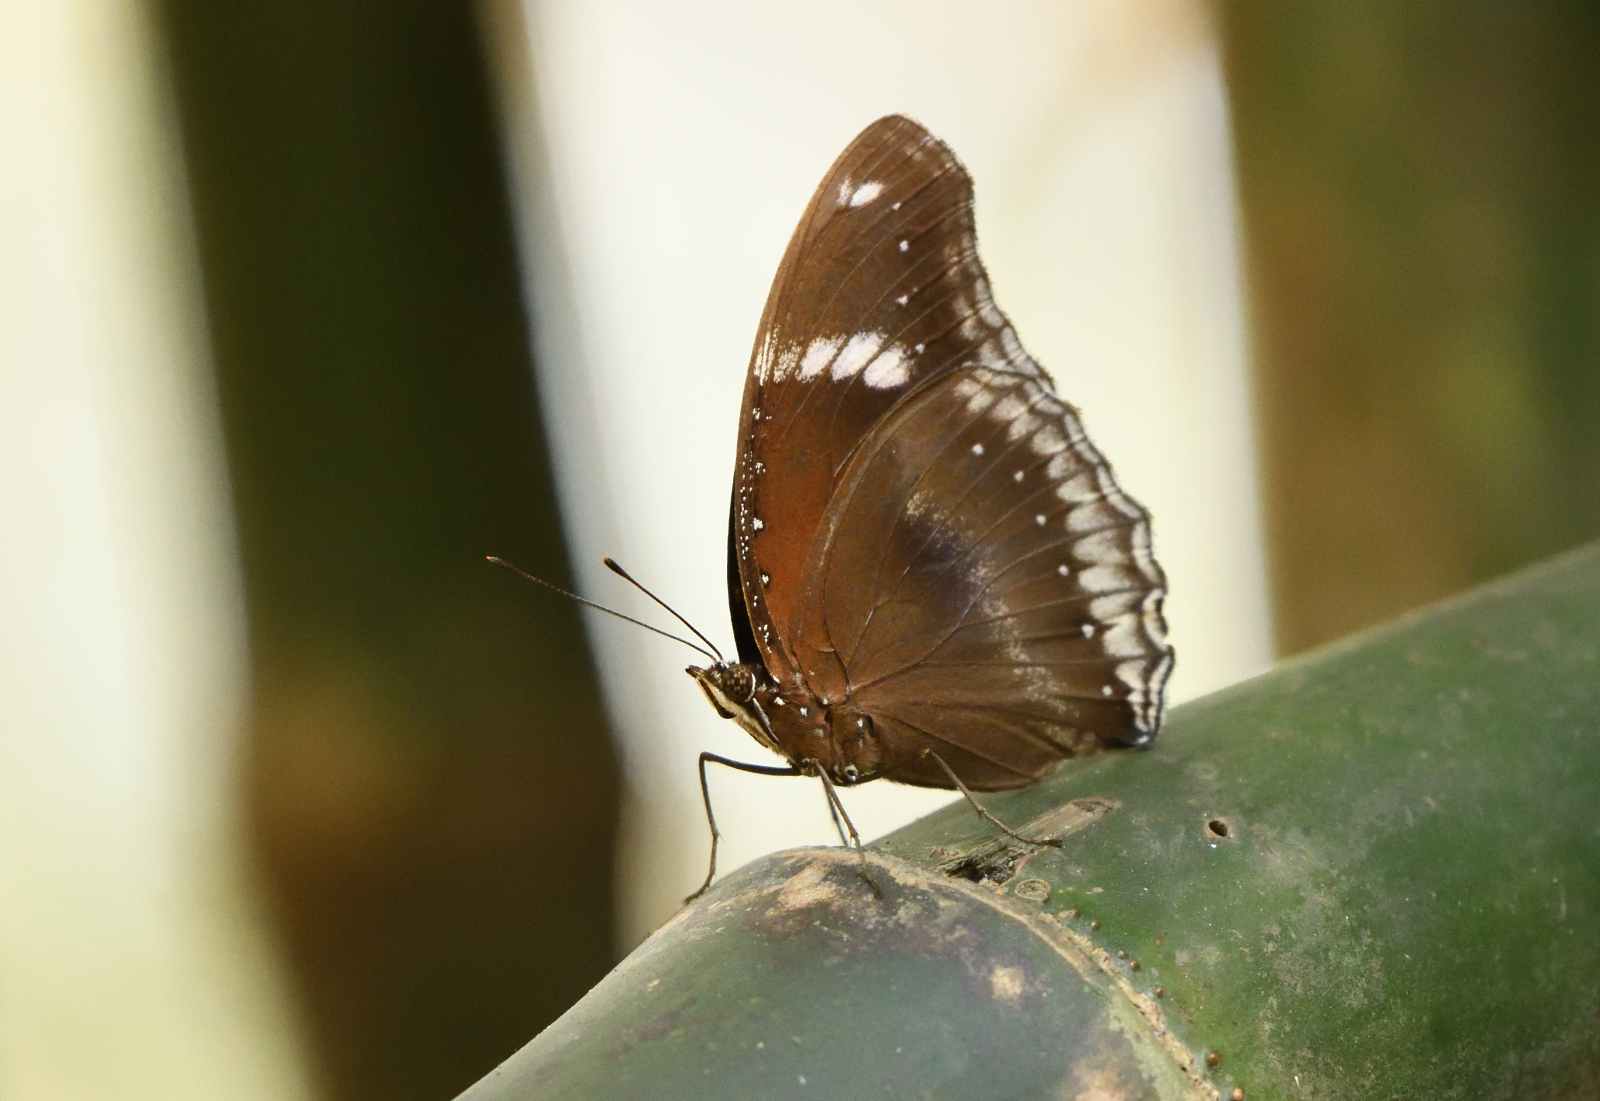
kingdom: Animalia
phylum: Arthropoda
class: Insecta
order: Lepidoptera
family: Nymphalidae
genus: Hypolimnas
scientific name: Hypolimnas bolina
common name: Great eggfly
